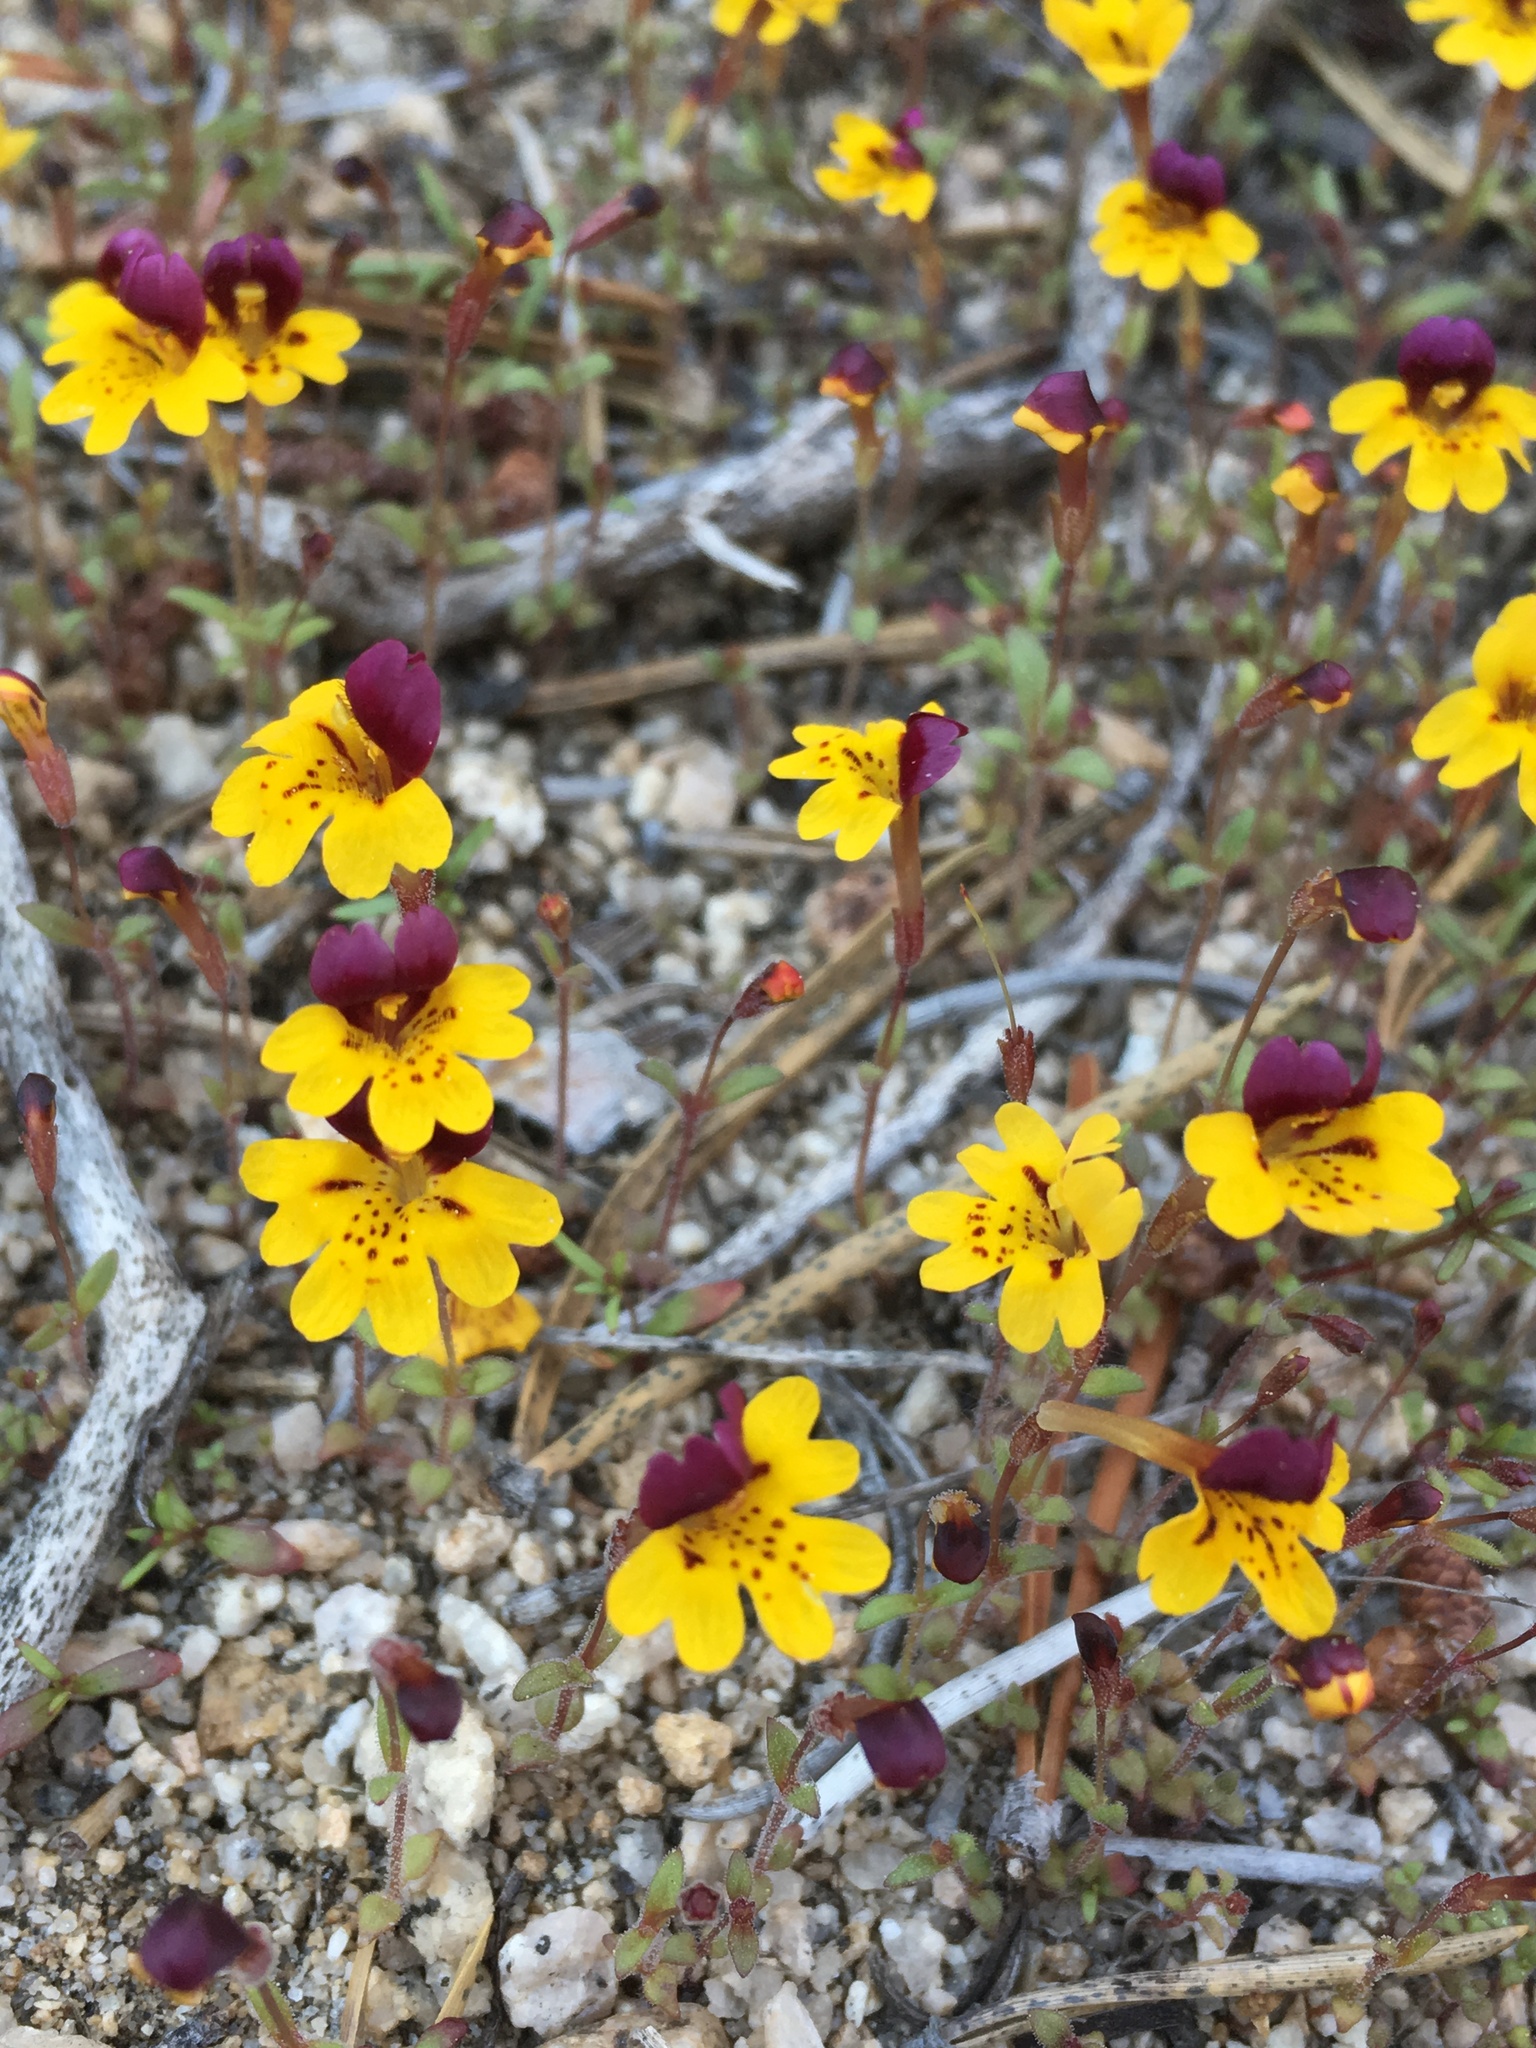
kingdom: Plantae
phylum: Tracheophyta
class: Magnoliopsida
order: Lamiales
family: Phrymaceae
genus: Erythranthe
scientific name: Erythranthe barbata
